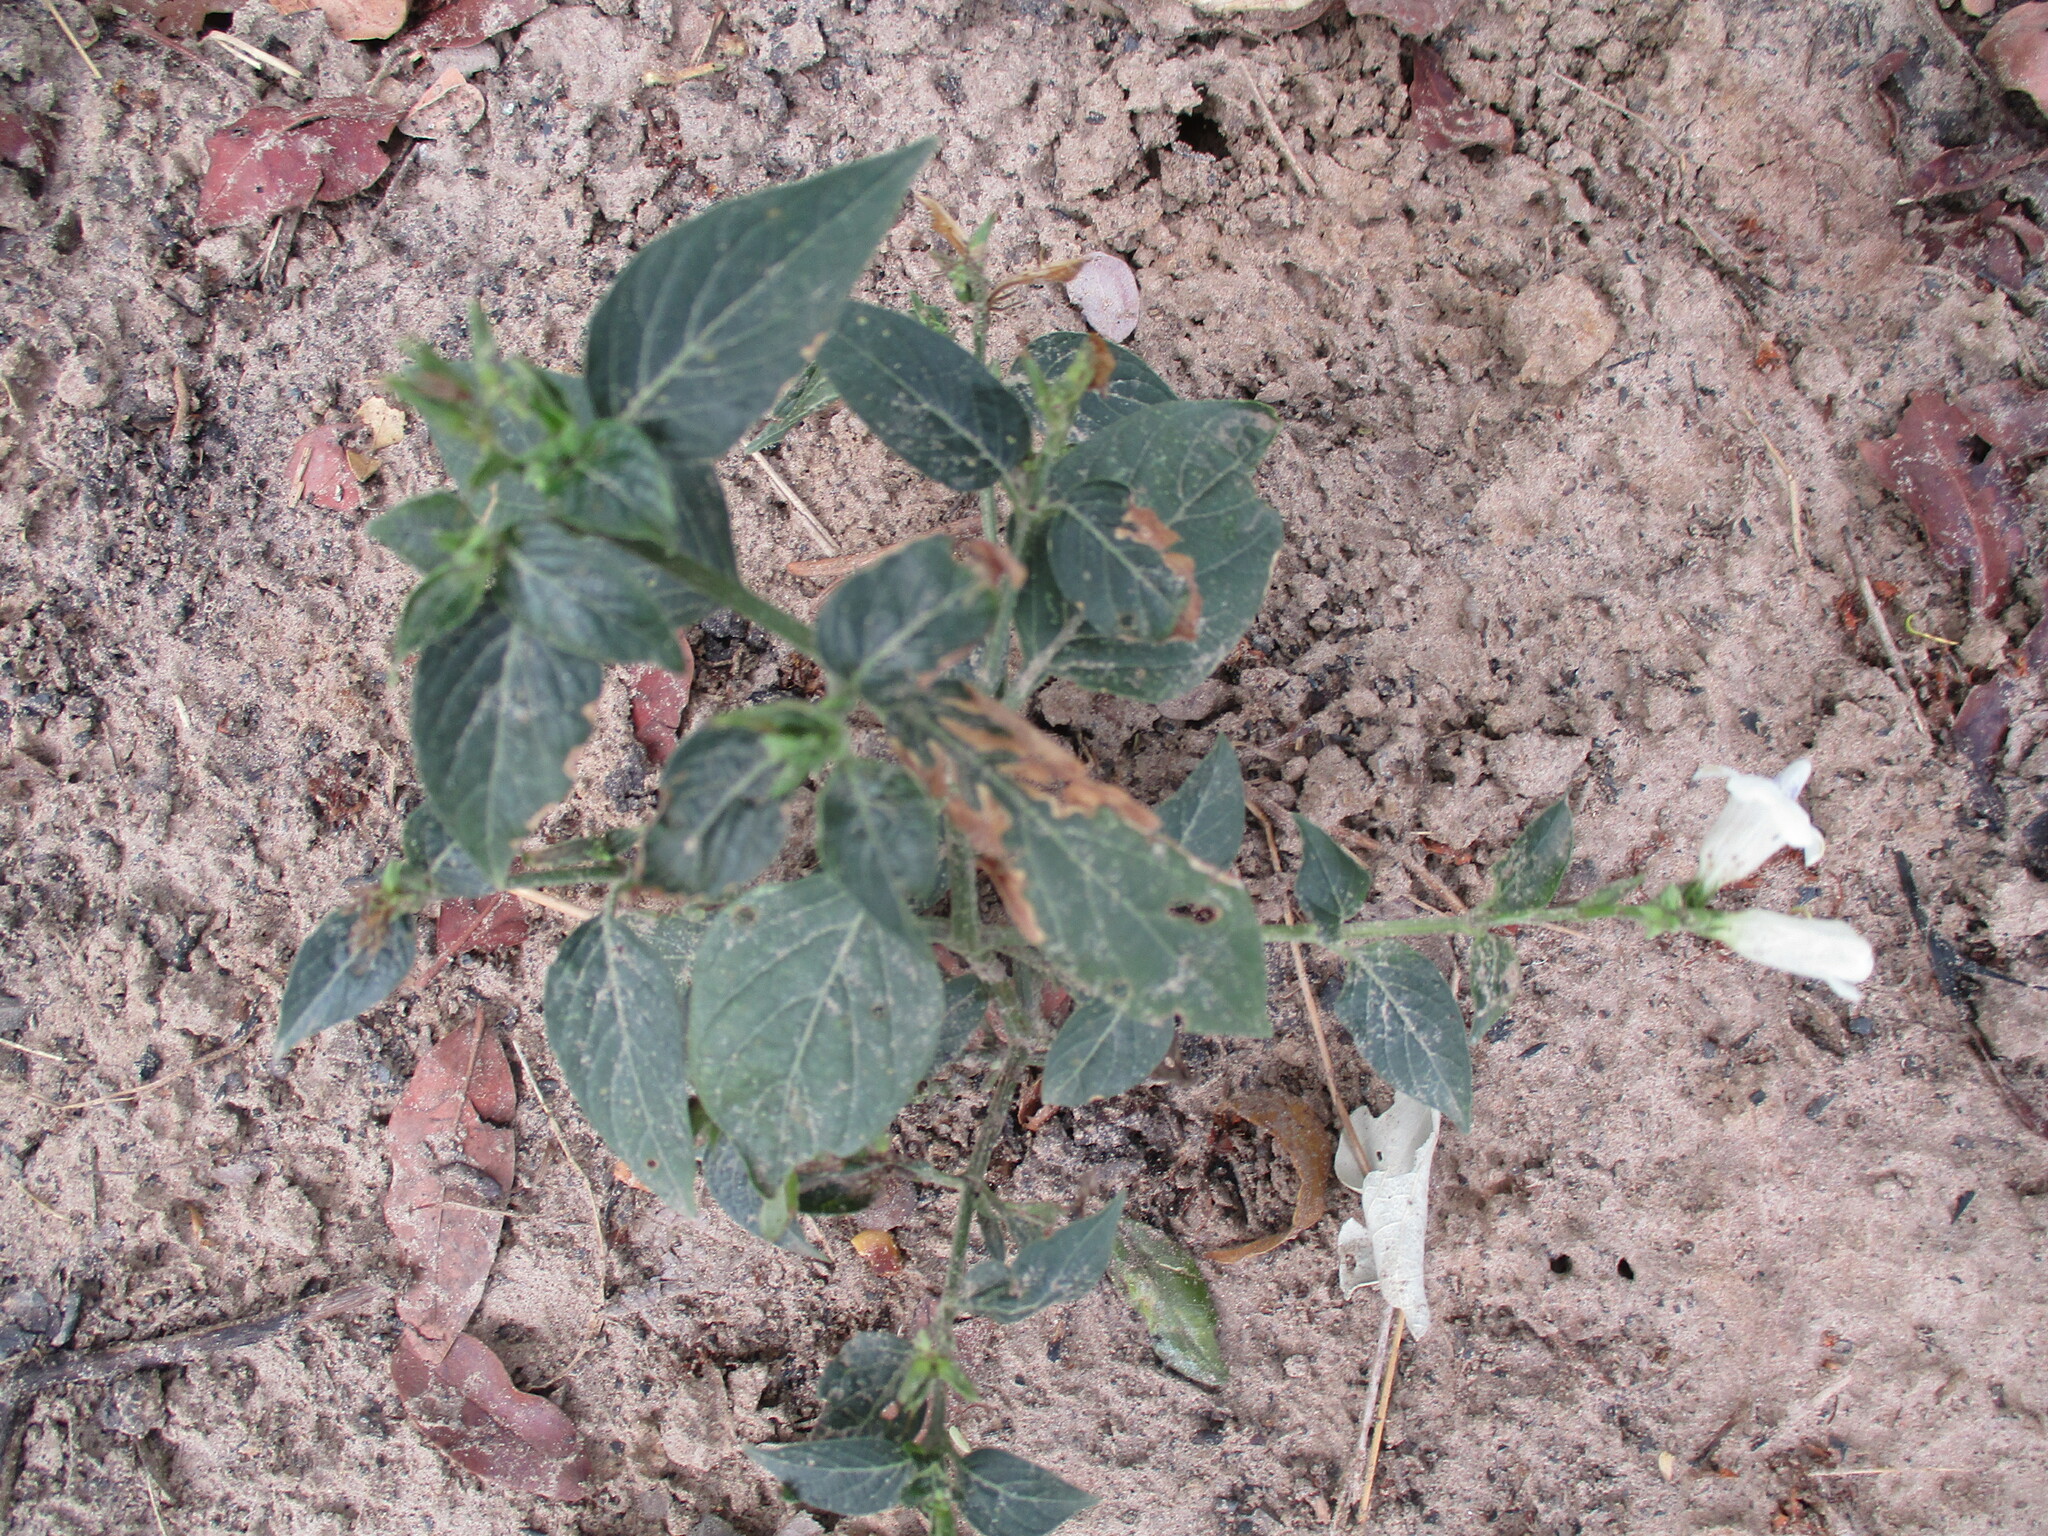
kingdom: Plantae
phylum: Tracheophyta
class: Magnoliopsida
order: Lamiales
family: Acanthaceae
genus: Asystasia
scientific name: Asystasia intrusa
